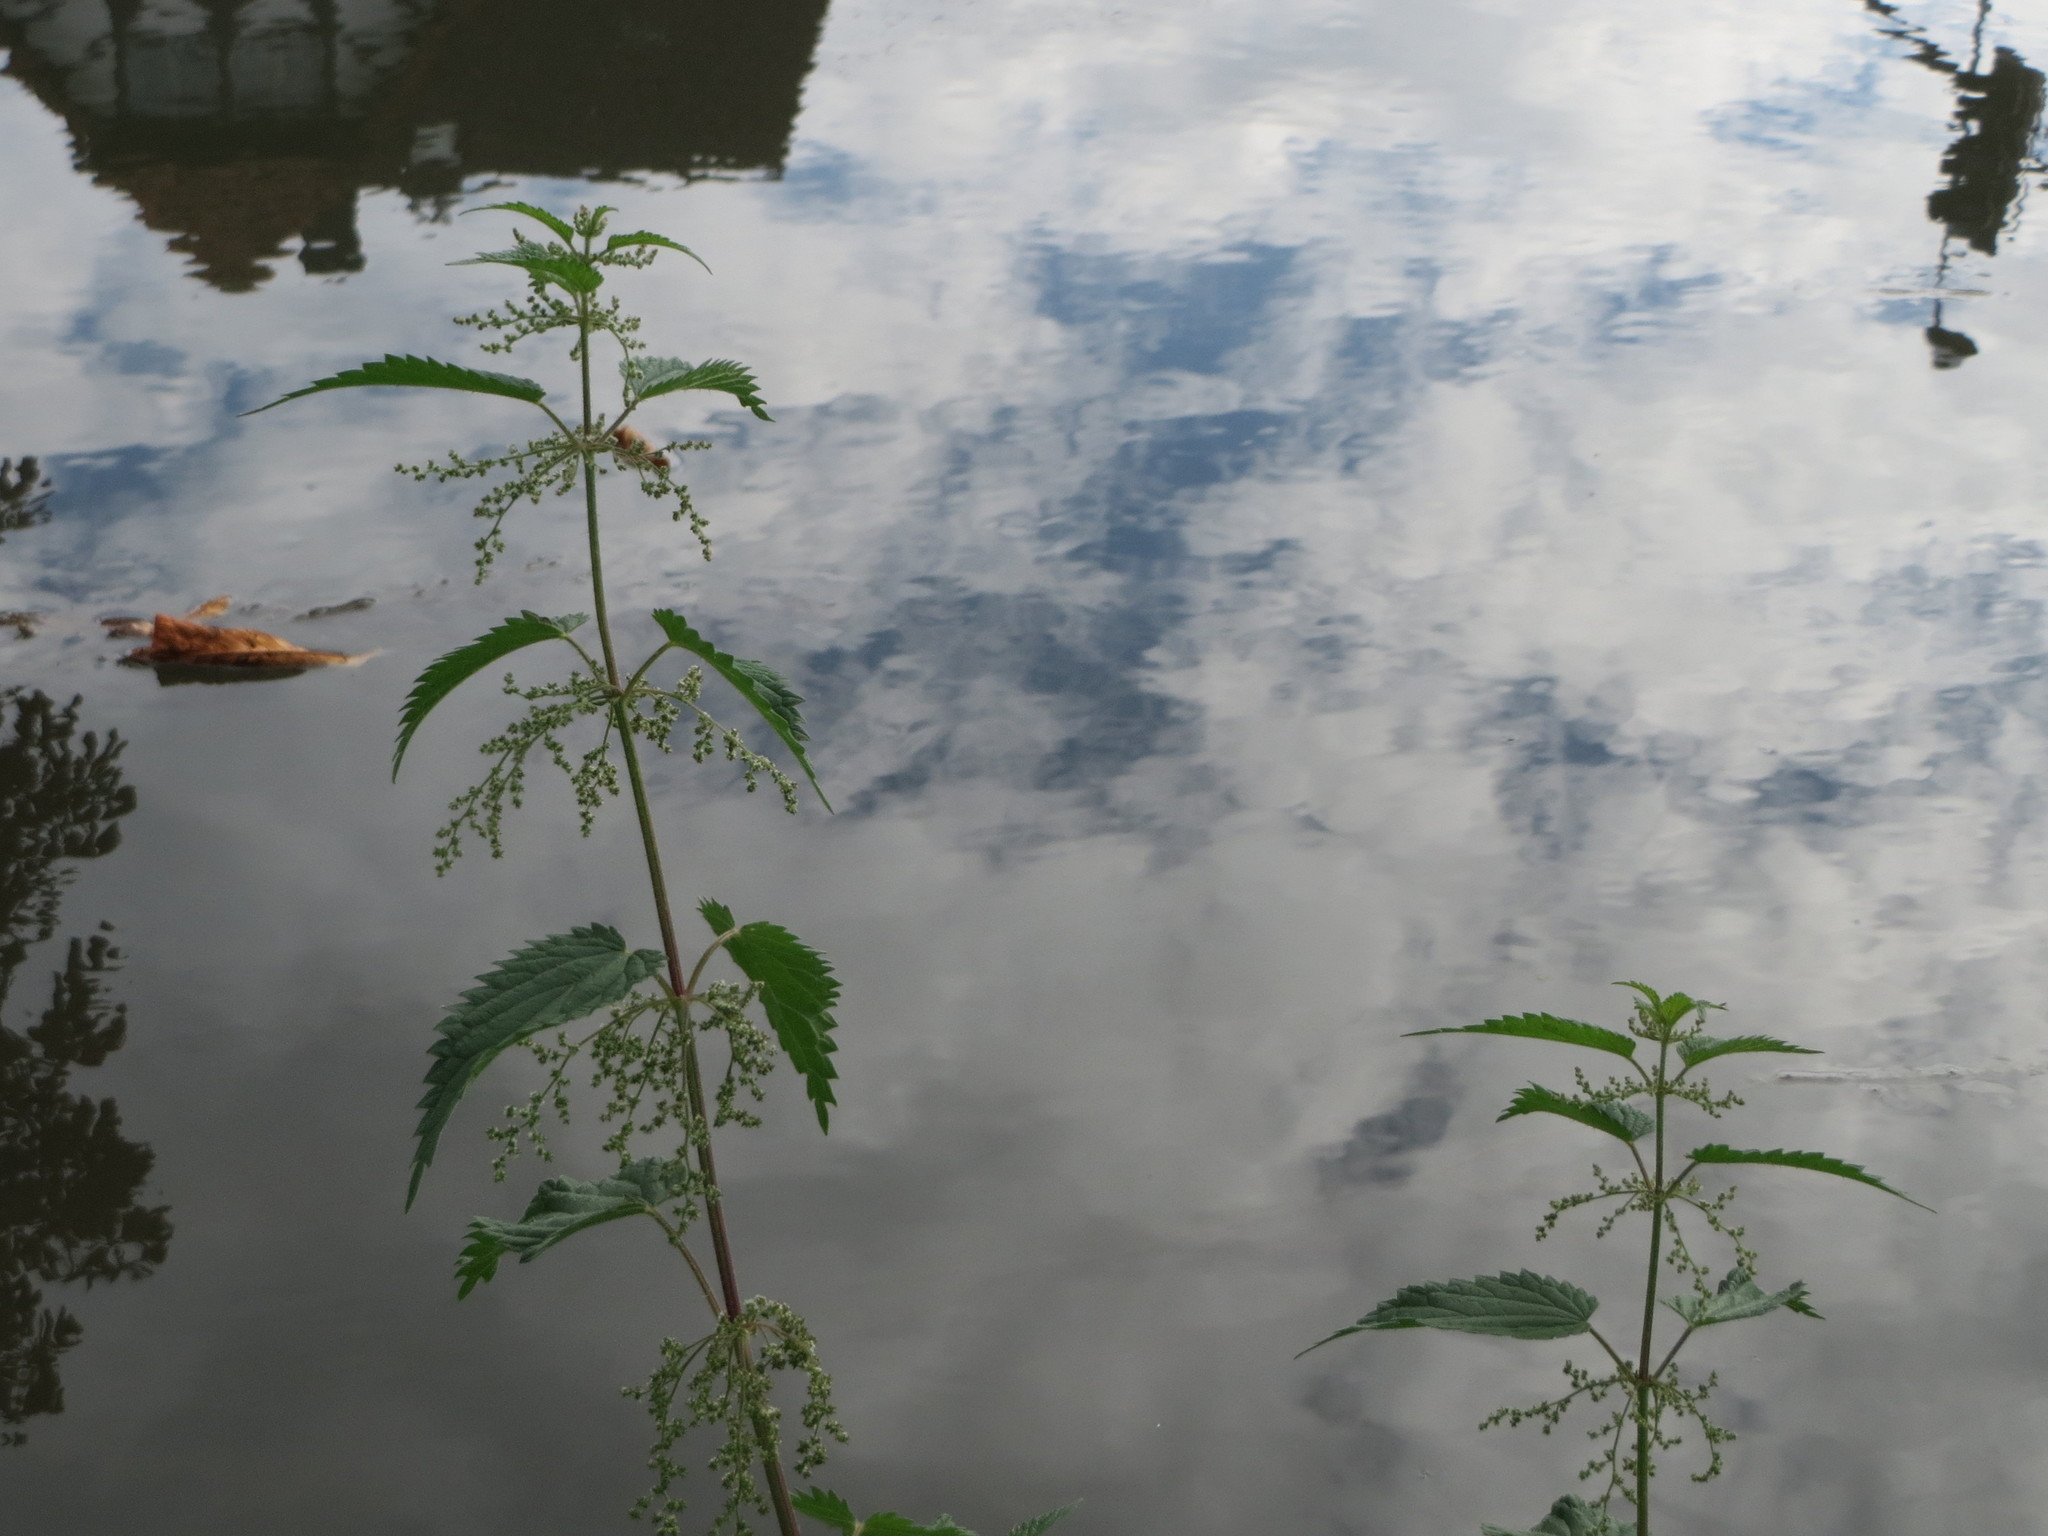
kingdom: Plantae
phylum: Tracheophyta
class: Magnoliopsida
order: Rosales
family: Urticaceae
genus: Urtica
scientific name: Urtica dioica
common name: Common nettle
